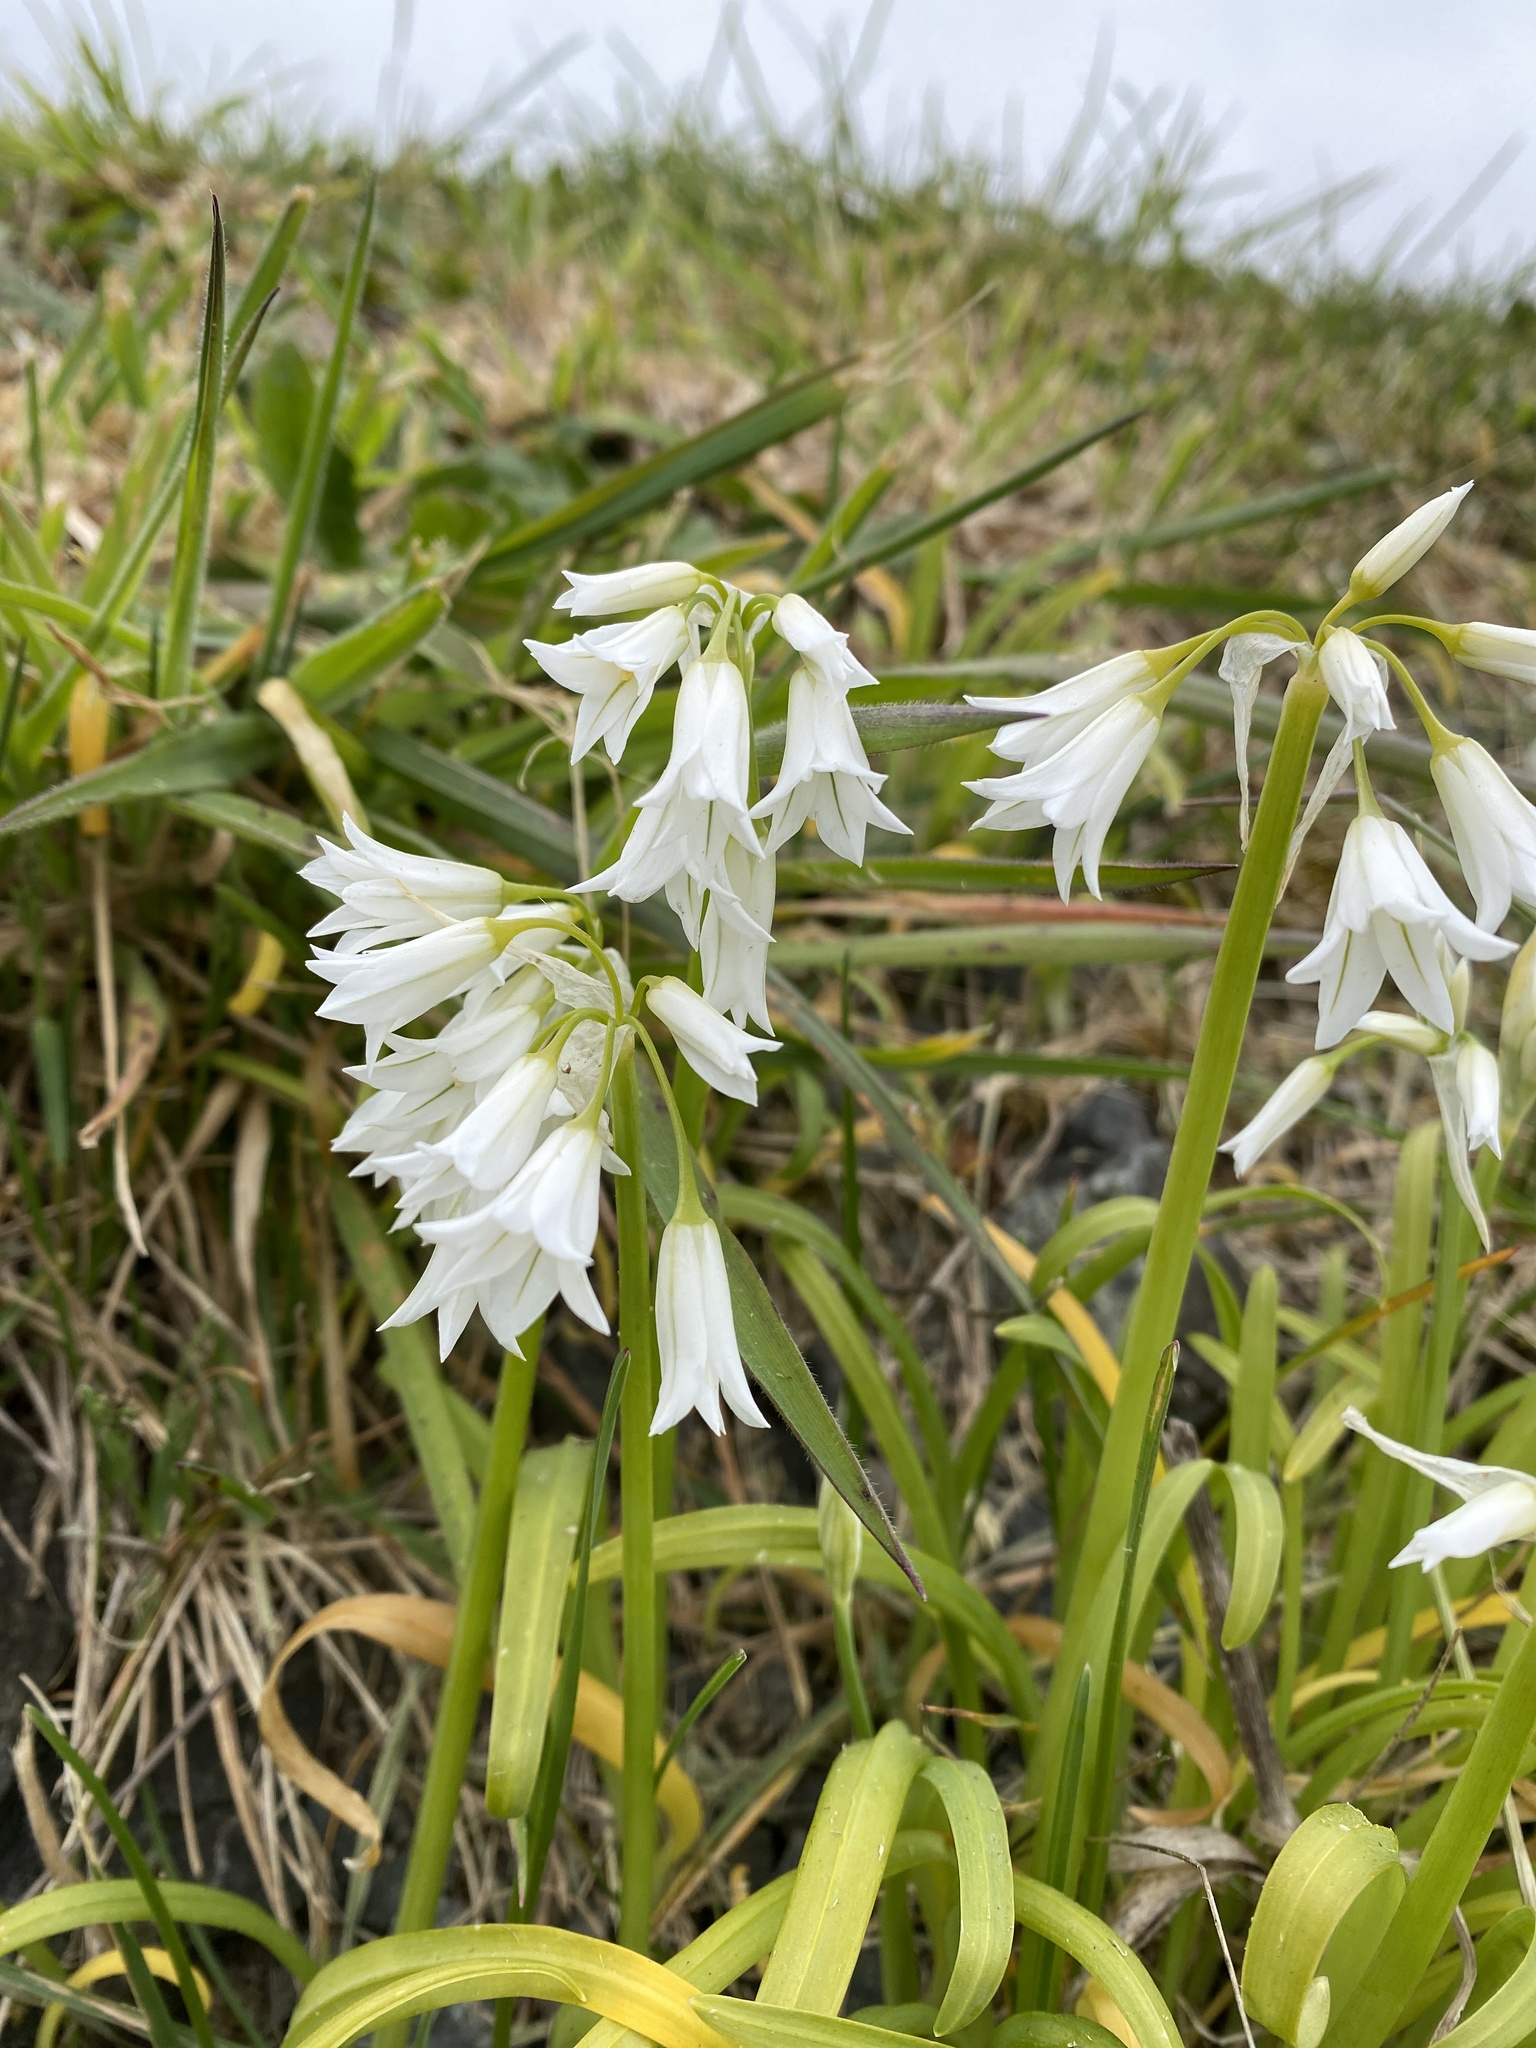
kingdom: Plantae
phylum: Tracheophyta
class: Liliopsida
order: Asparagales
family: Amaryllidaceae
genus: Allium
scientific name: Allium triquetrum
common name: Three-cornered garlic
